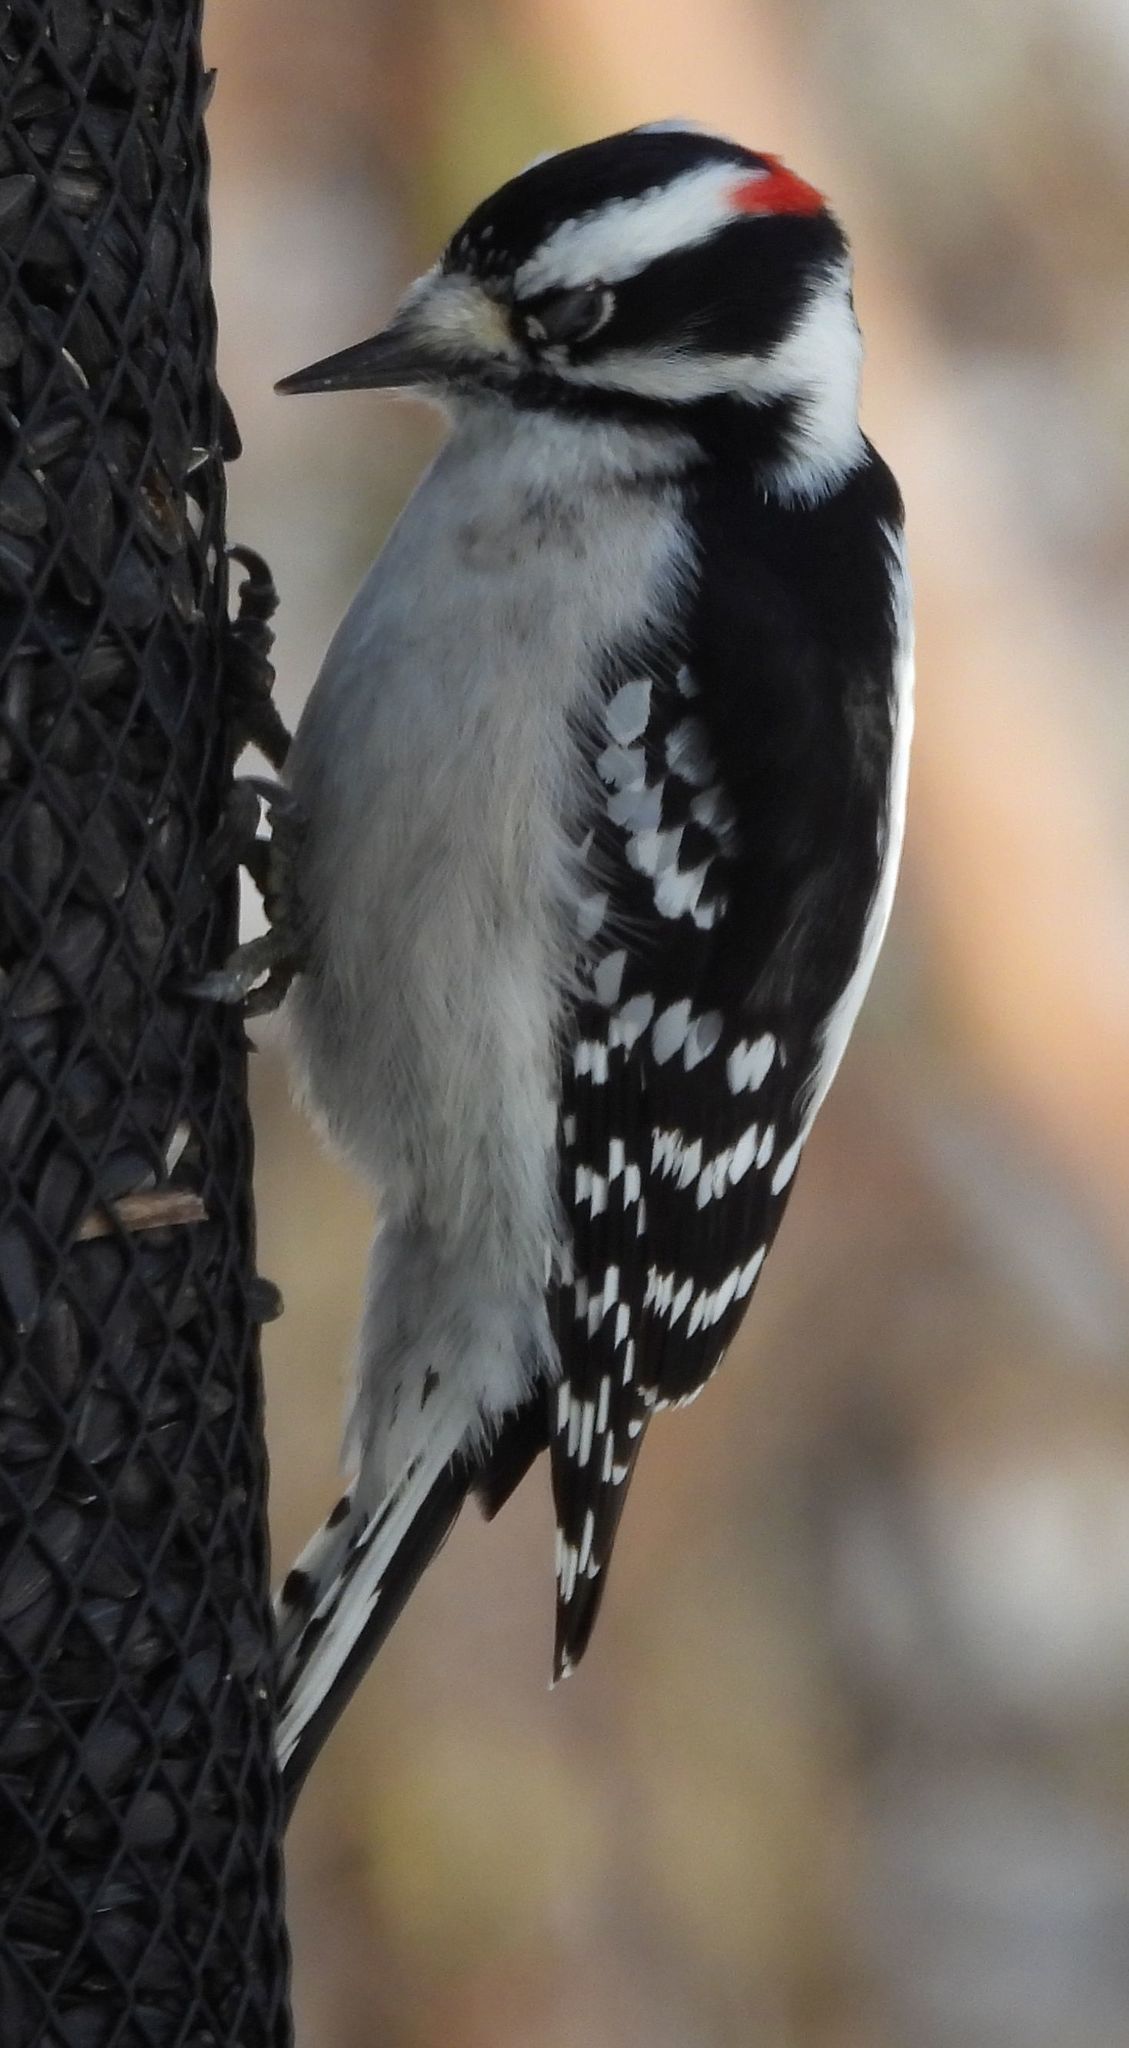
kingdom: Animalia
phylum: Chordata
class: Aves
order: Piciformes
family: Picidae
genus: Dryobates
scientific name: Dryobates pubescens
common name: Downy woodpecker
